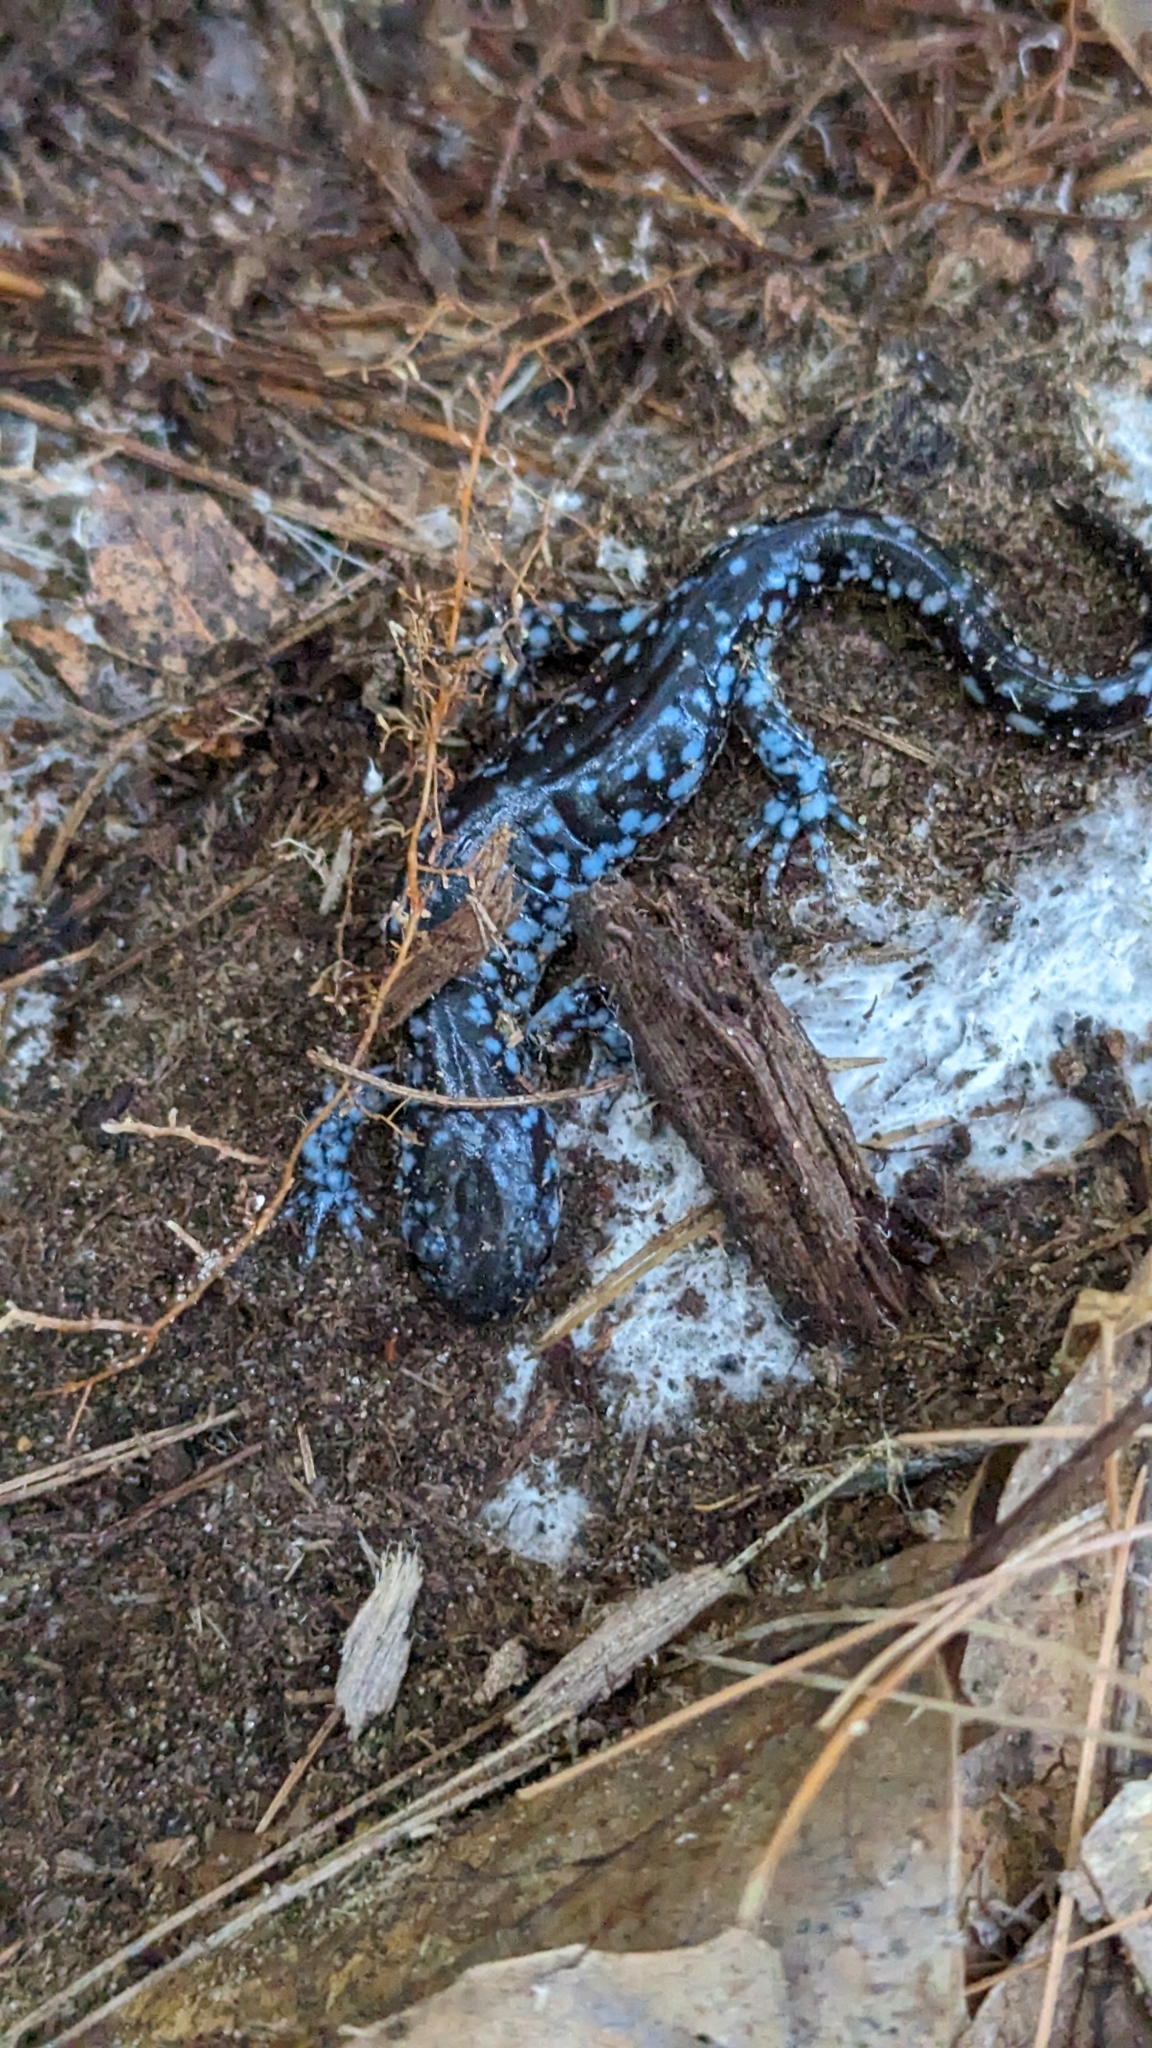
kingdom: Animalia
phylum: Chordata
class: Amphibia
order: Caudata
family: Ambystomatidae
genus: Ambystoma
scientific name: Ambystoma laterale
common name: Blue-spotted salamander
